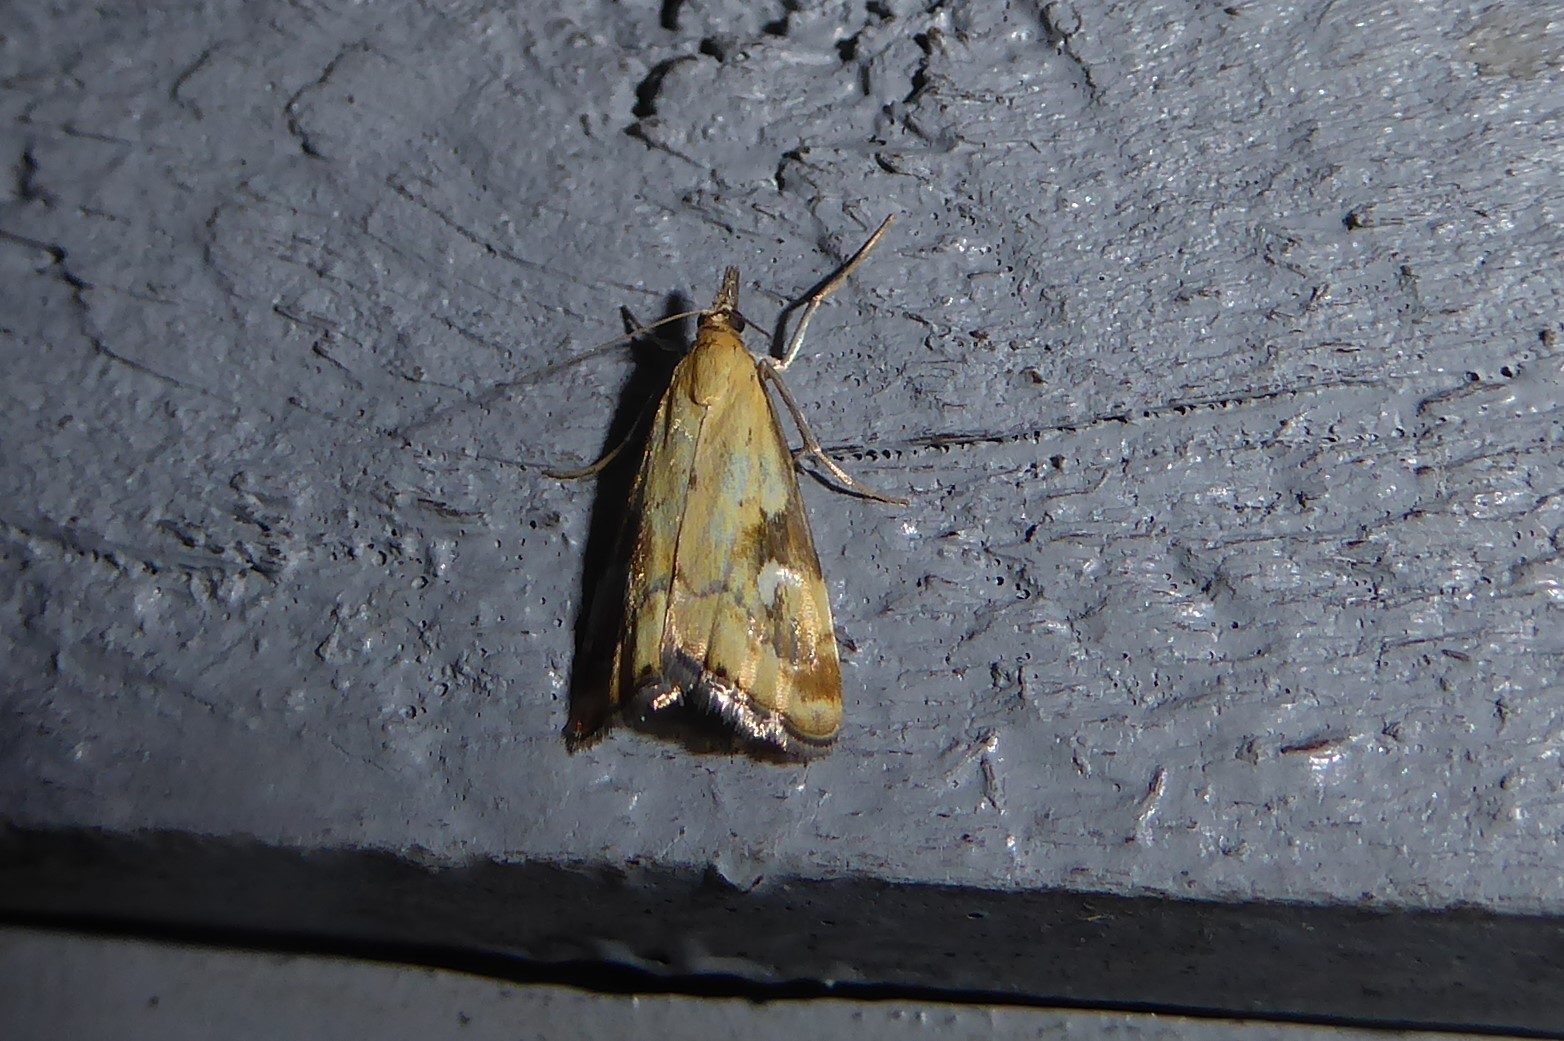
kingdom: Animalia
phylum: Arthropoda
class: Insecta
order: Lepidoptera
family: Crambidae
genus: Glaucocharis
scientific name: Glaucocharis lepidella
